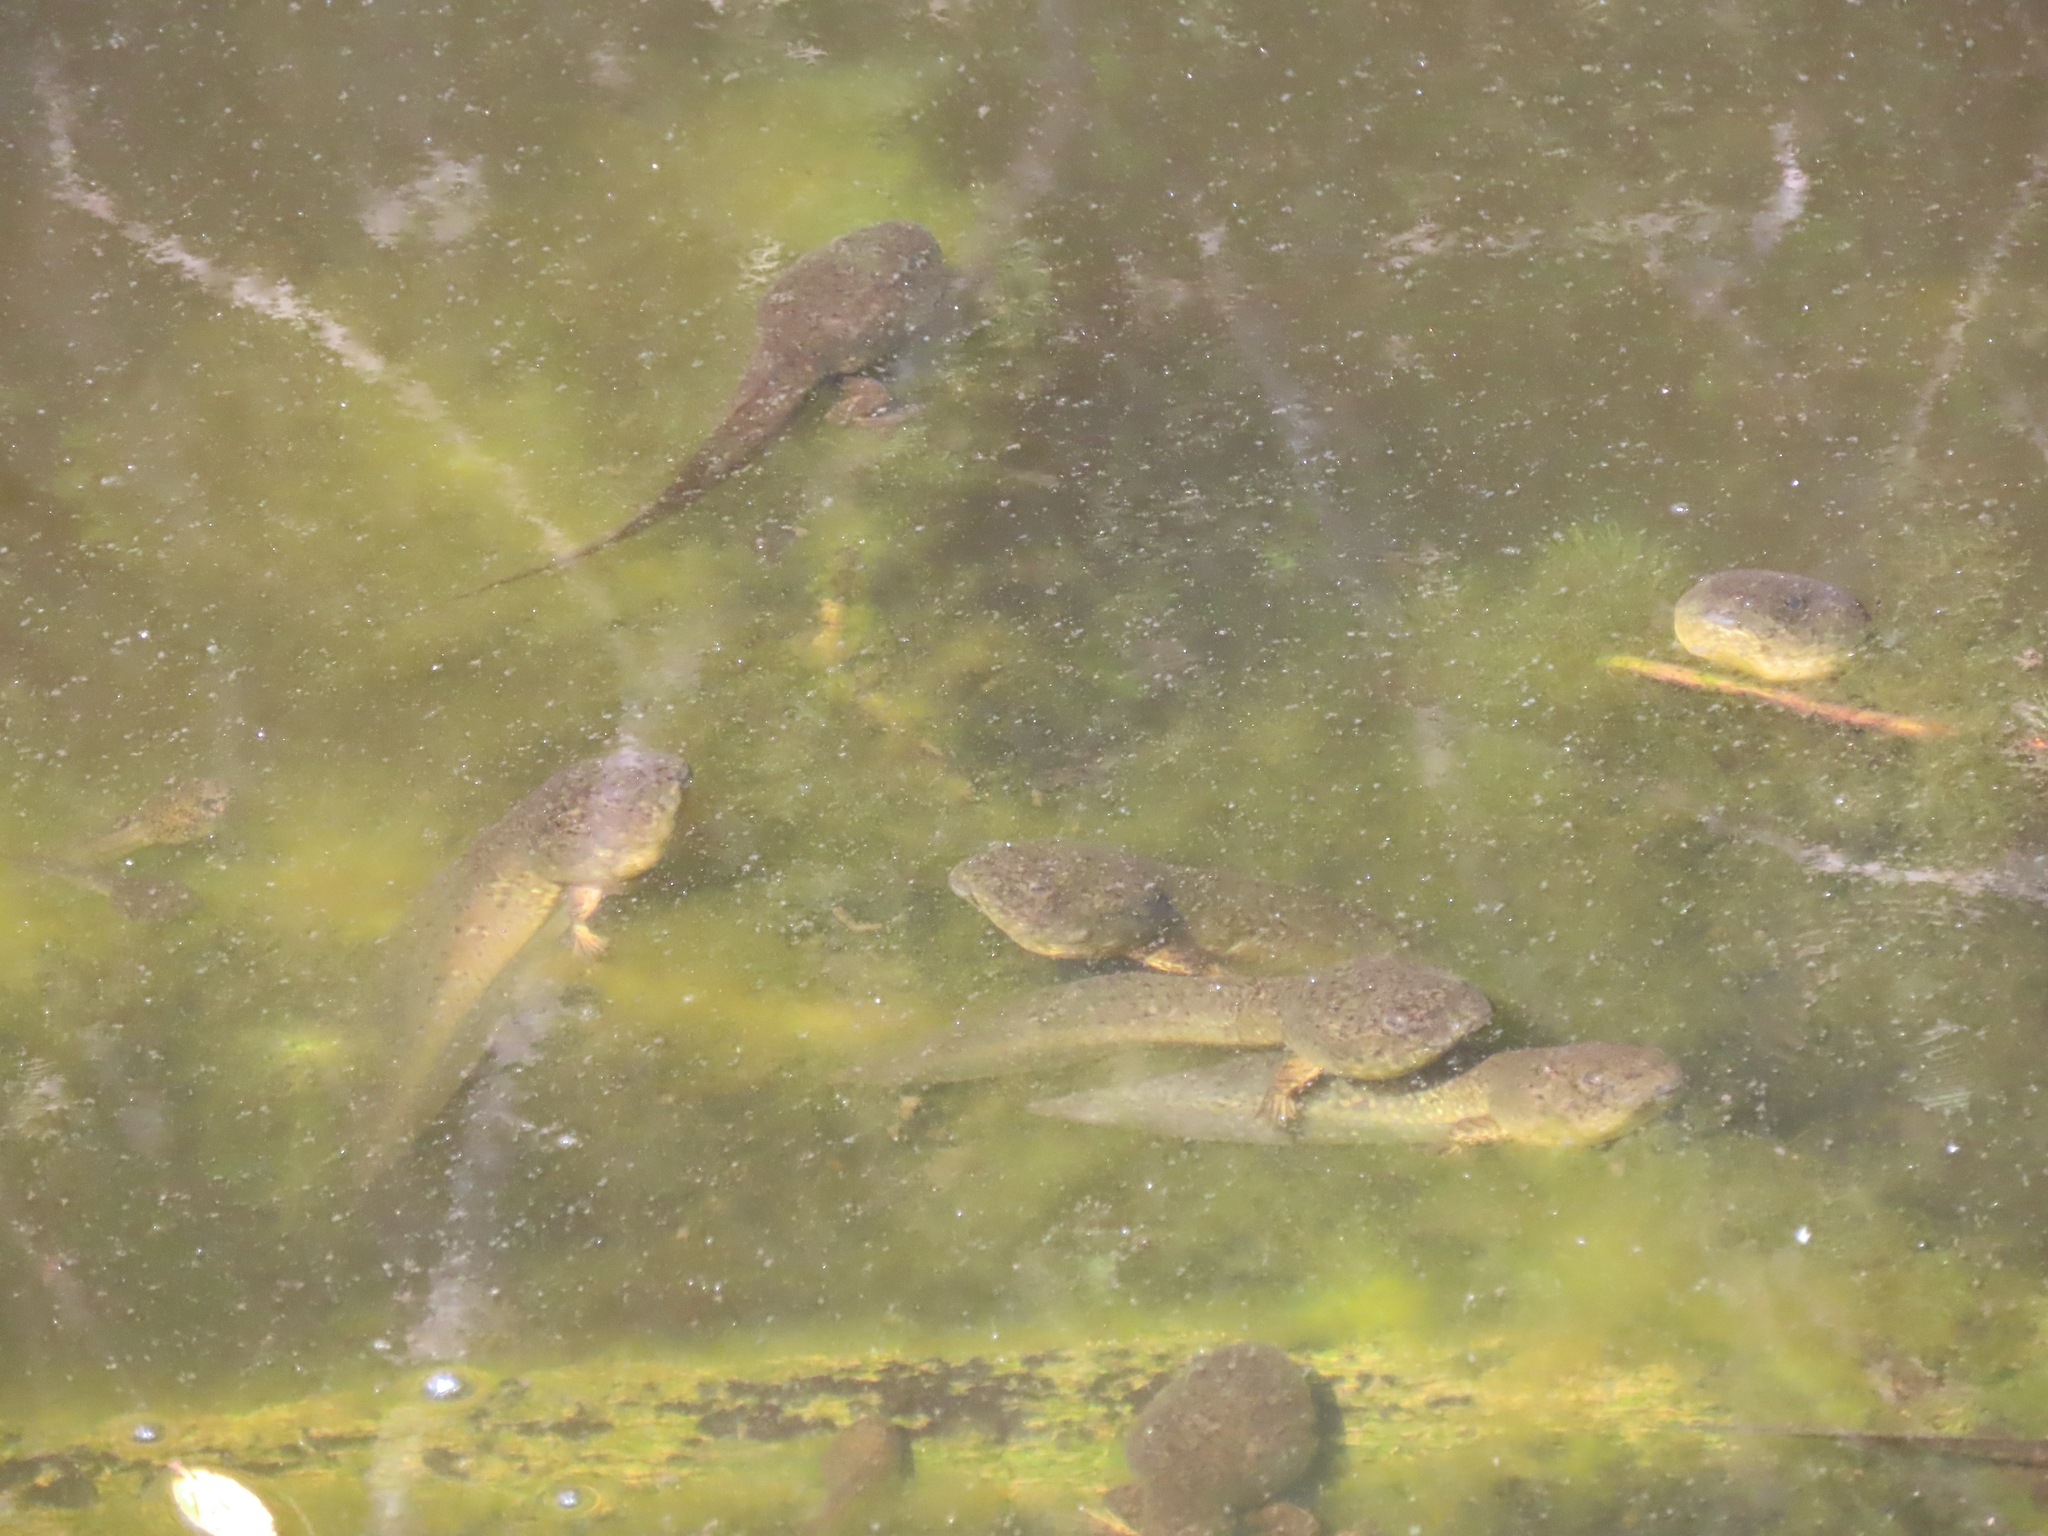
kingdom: Animalia
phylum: Chordata
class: Amphibia
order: Anura
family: Ranidae
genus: Lithobates
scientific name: Lithobates catesbeianus
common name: American bullfrog
